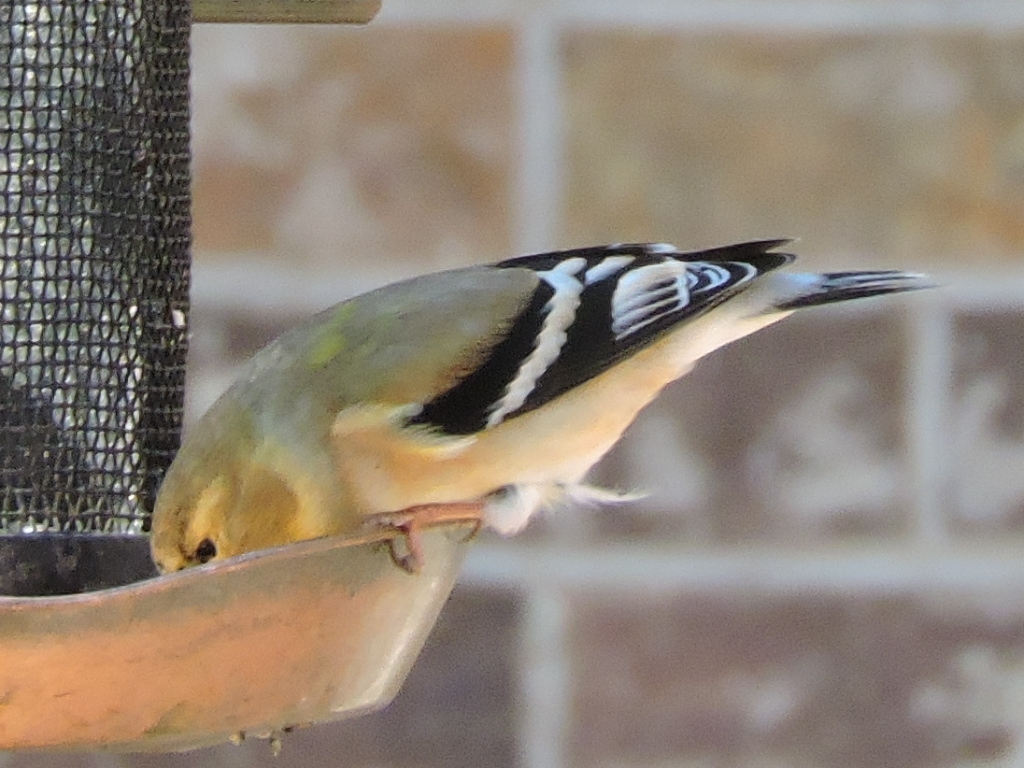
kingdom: Animalia
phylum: Chordata
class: Aves
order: Passeriformes
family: Fringillidae
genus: Spinus
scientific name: Spinus tristis
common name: American goldfinch
